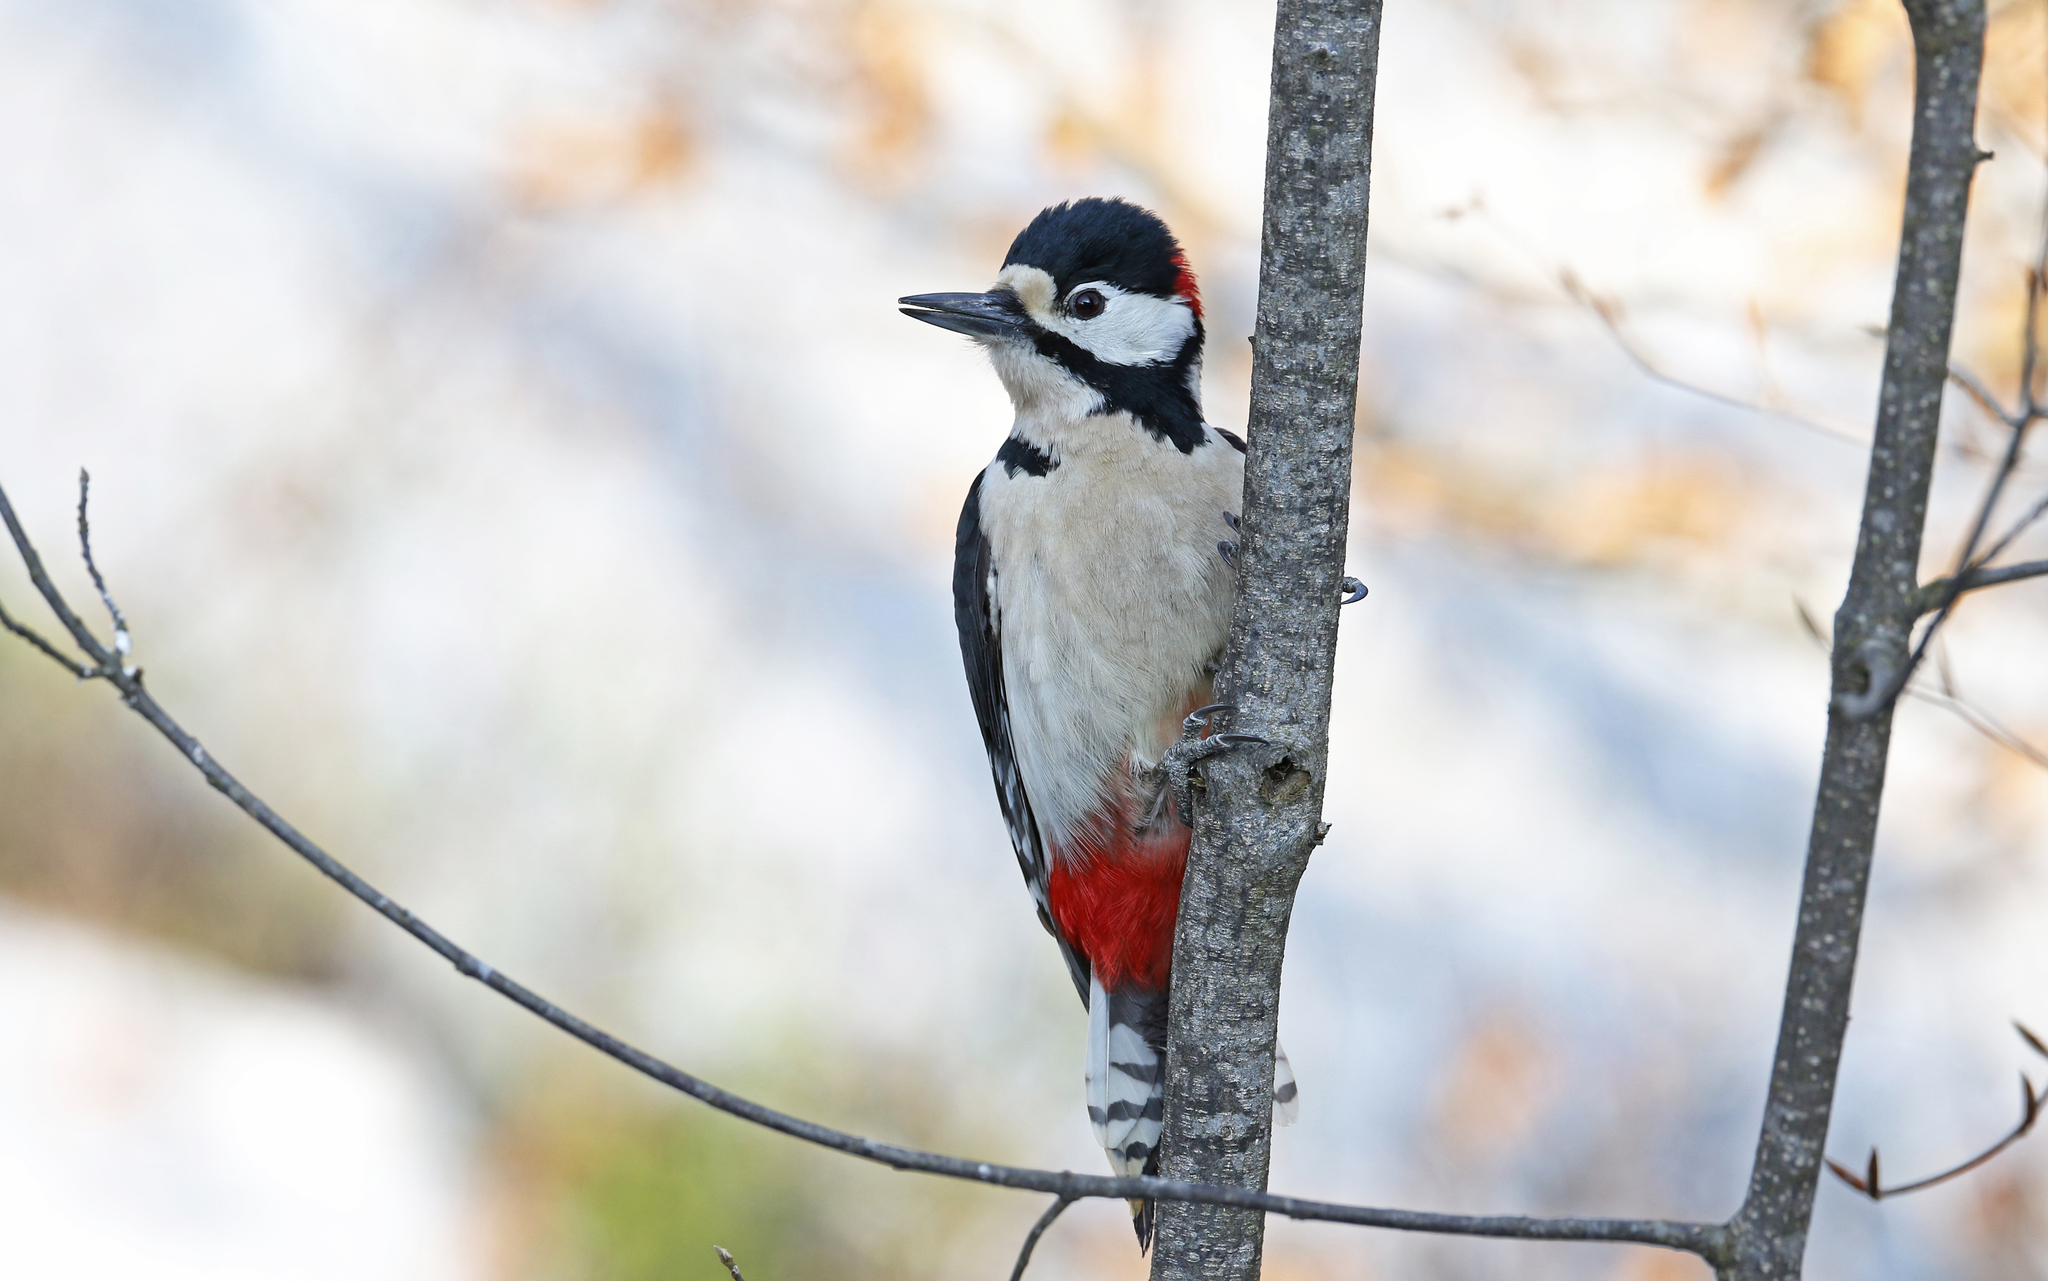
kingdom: Animalia
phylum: Chordata
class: Aves
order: Piciformes
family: Picidae
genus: Dendrocopos
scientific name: Dendrocopos major
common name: Great spotted woodpecker
